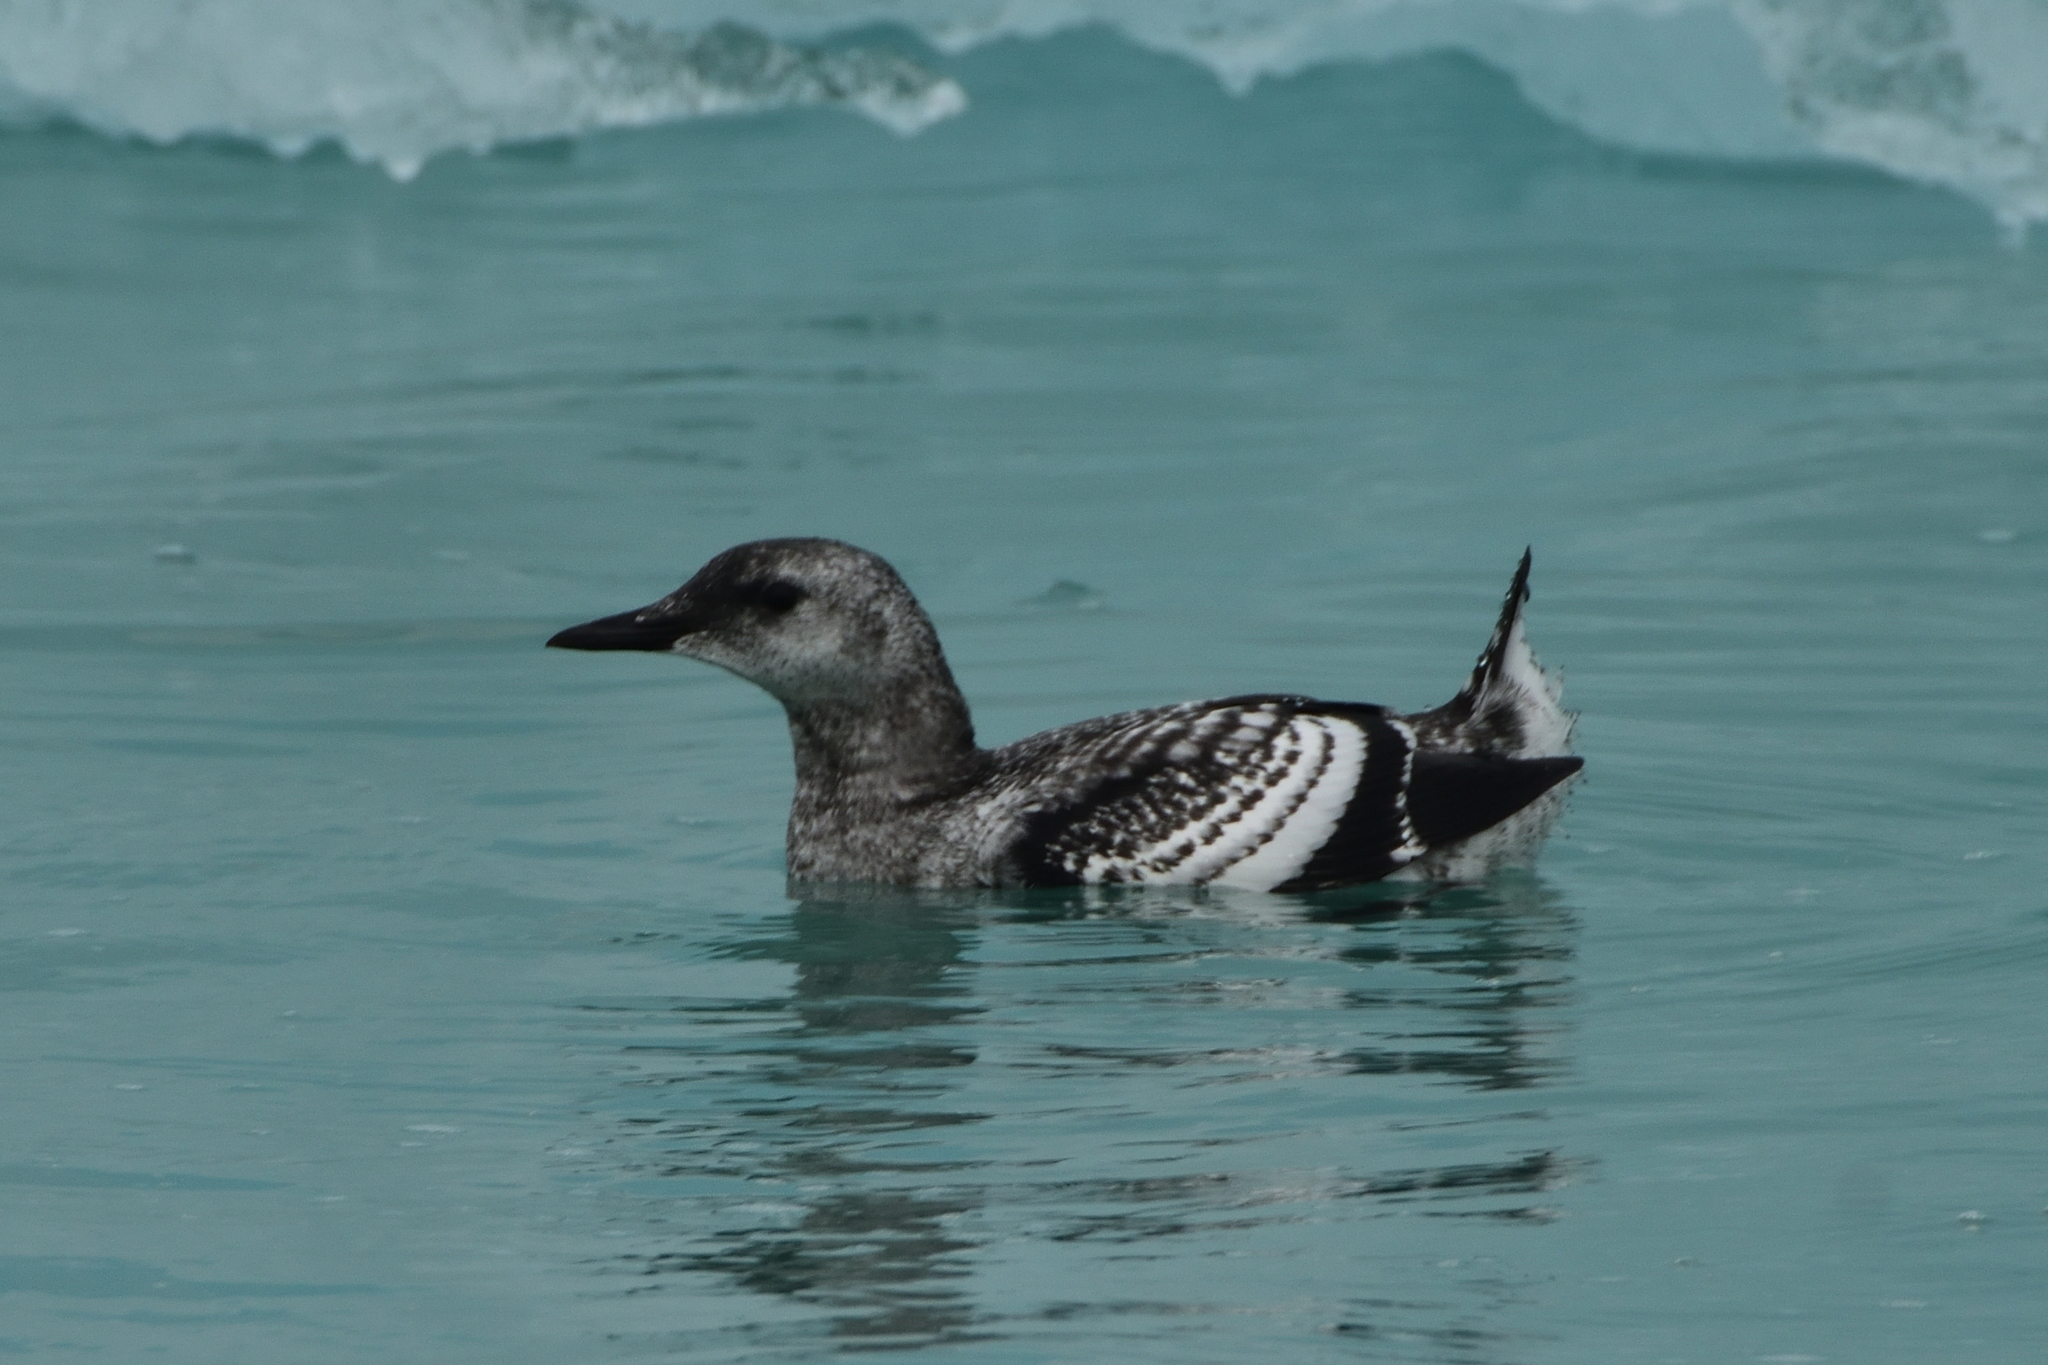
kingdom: Animalia
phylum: Chordata
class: Aves
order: Charadriiformes
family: Alcidae
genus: Cepphus
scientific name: Cepphus grylle
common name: Black guillemot
